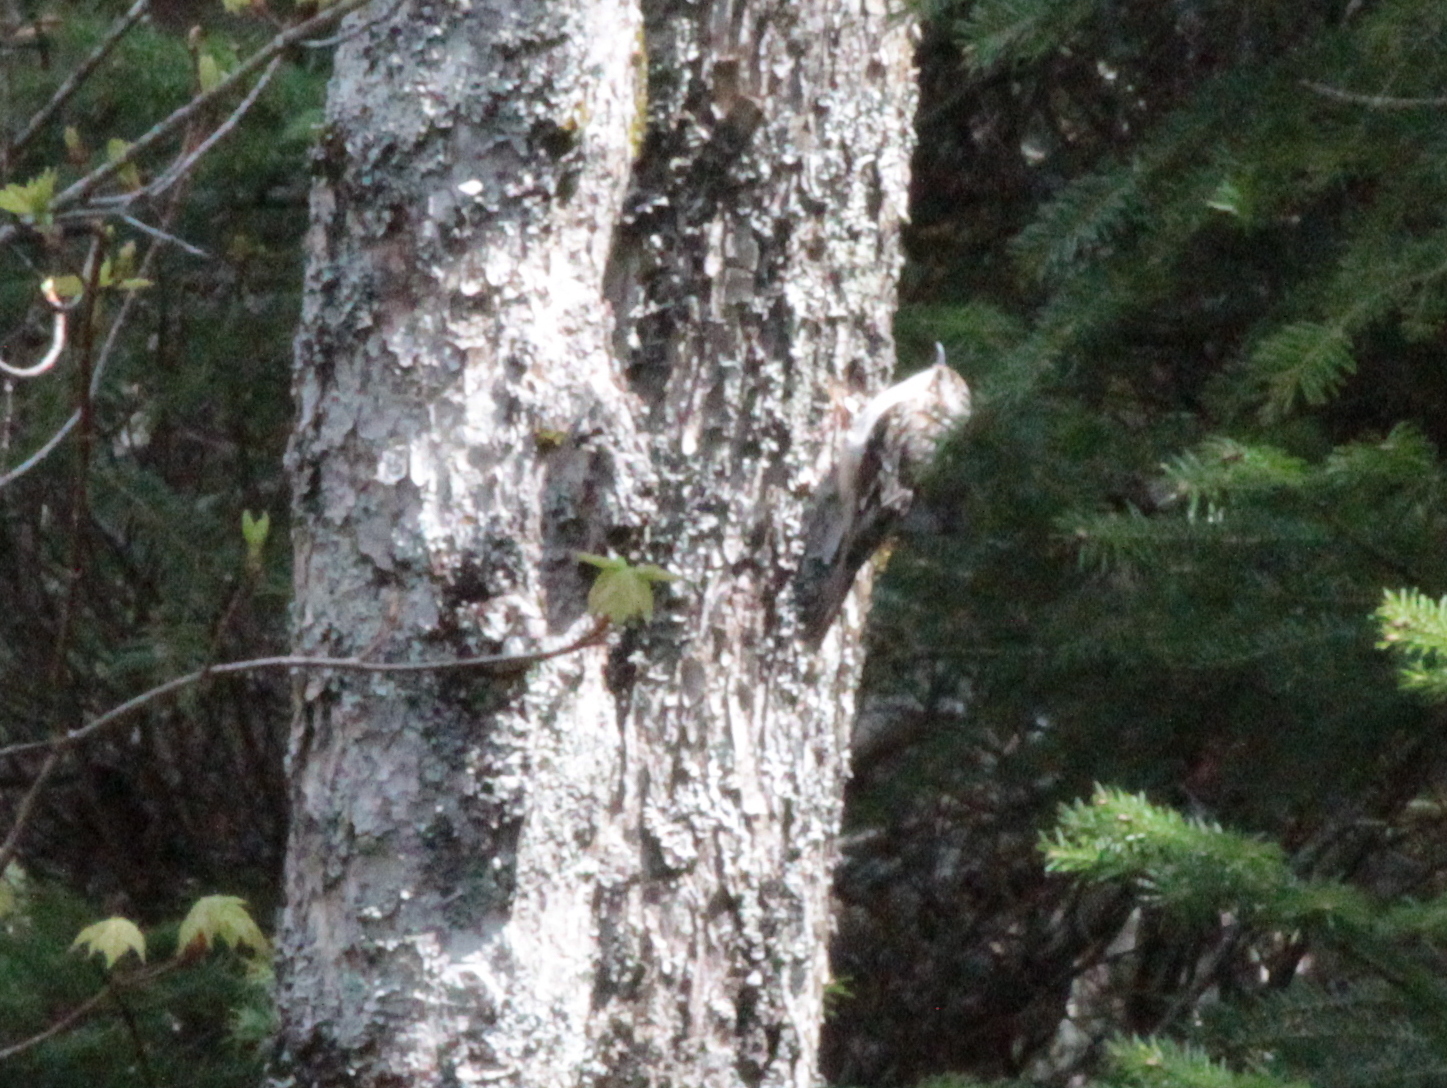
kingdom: Animalia
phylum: Chordata
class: Aves
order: Passeriformes
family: Certhiidae
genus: Certhia
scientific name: Certhia americana
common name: Brown creeper
